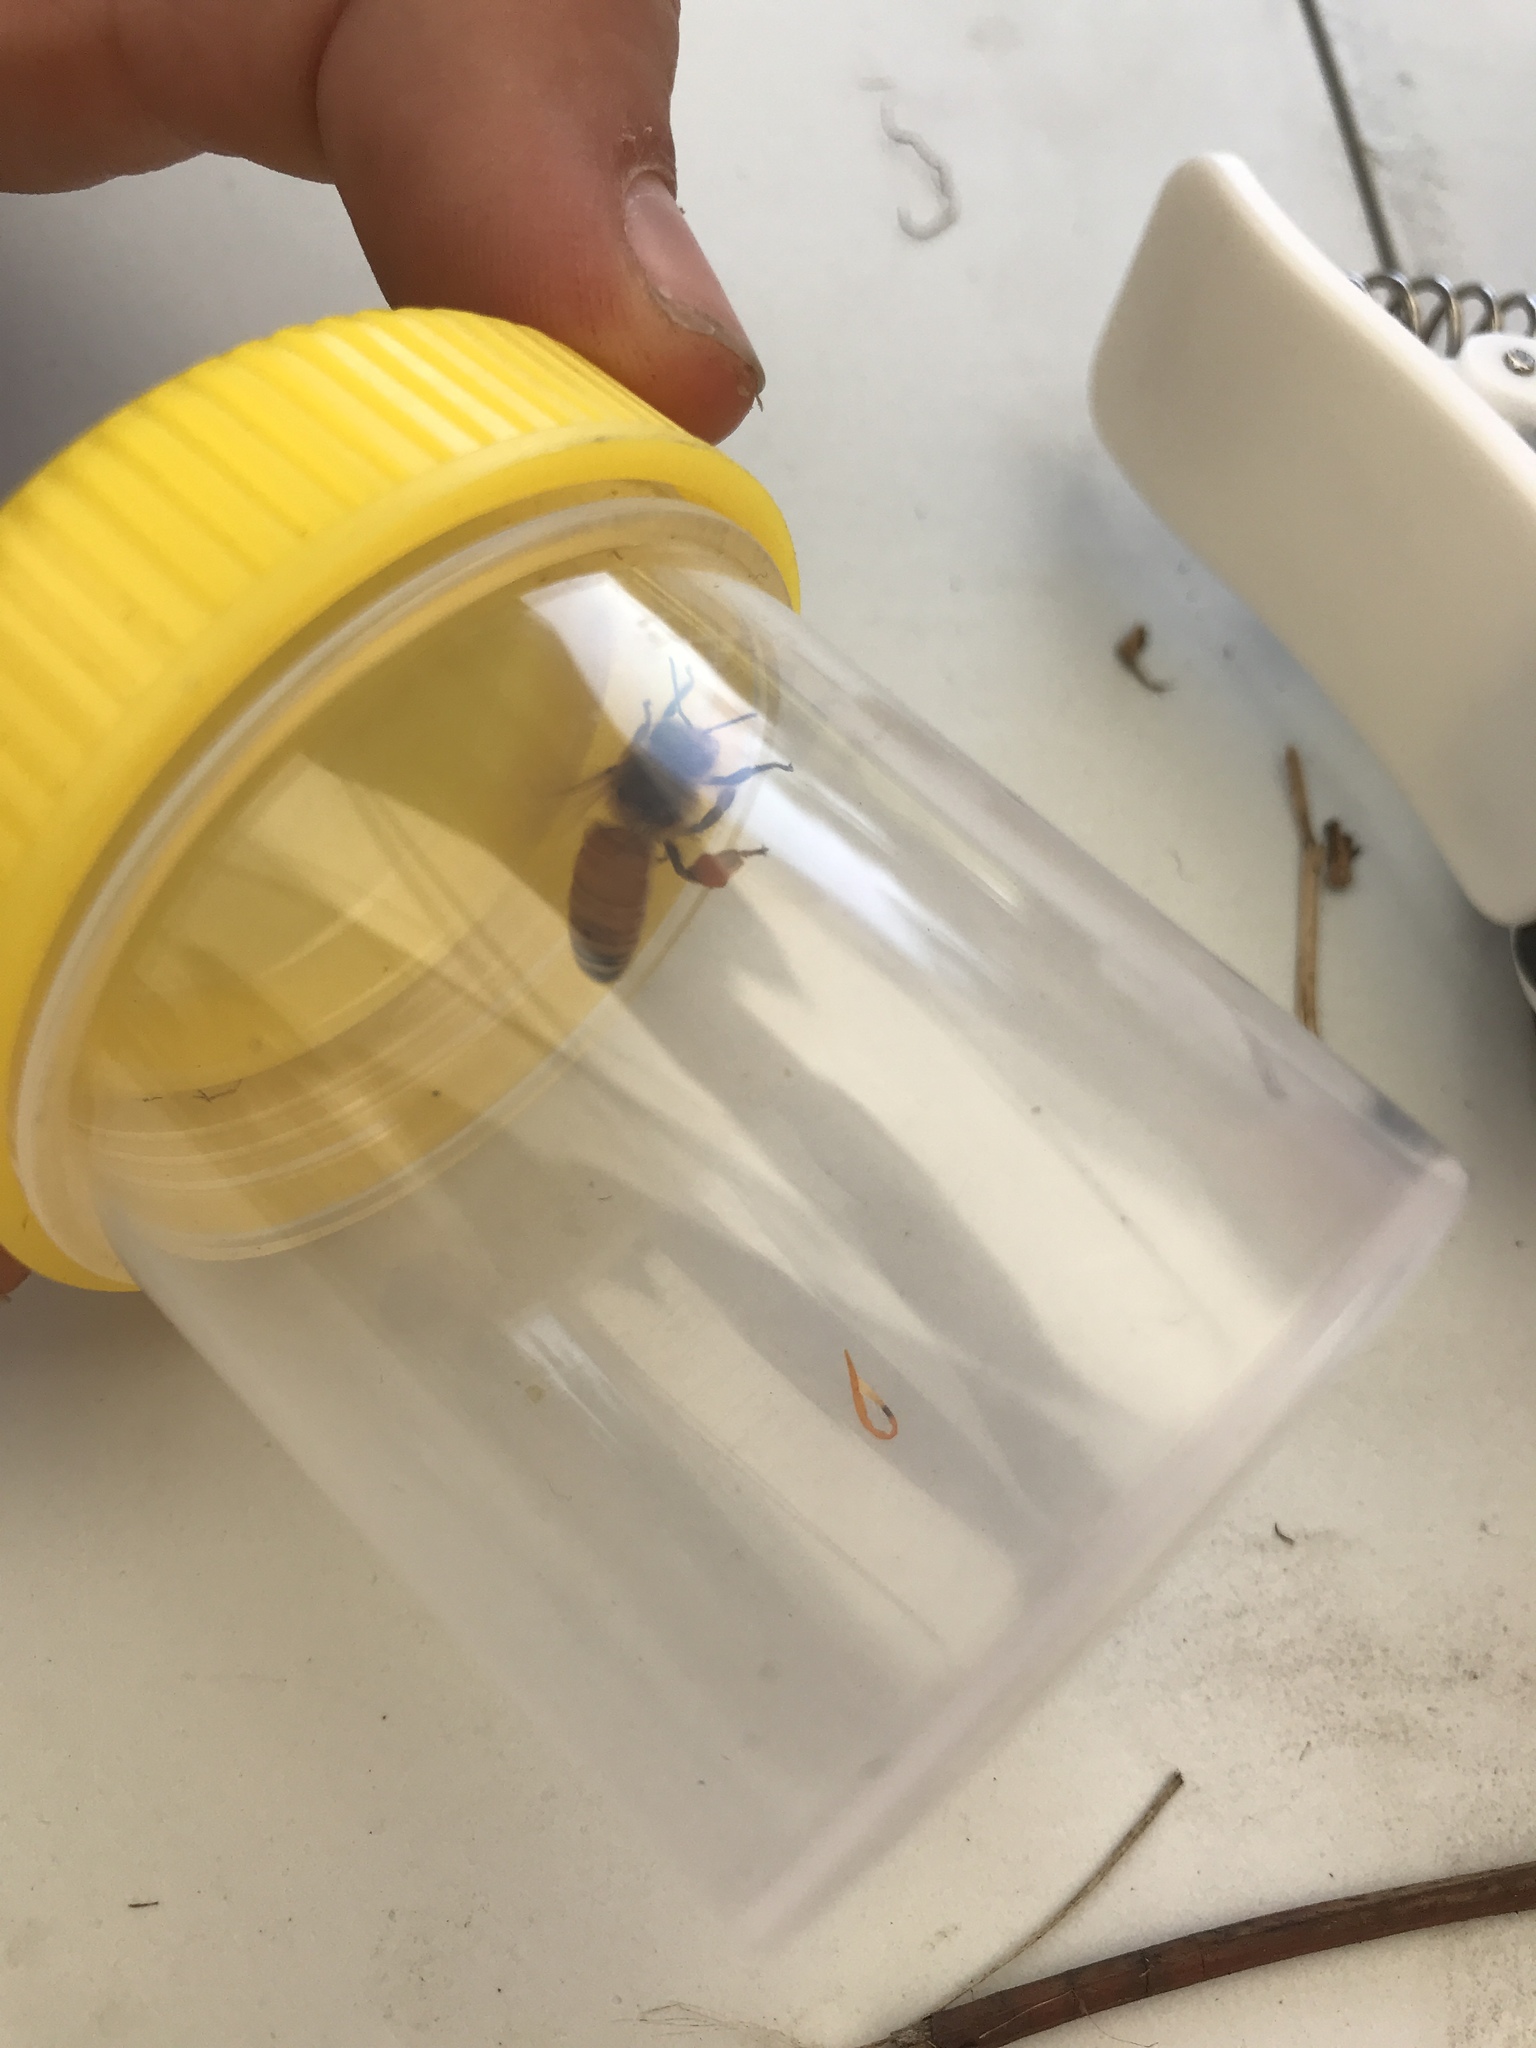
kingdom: Animalia
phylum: Arthropoda
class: Insecta
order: Hymenoptera
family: Apidae
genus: Apis
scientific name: Apis mellifera
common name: Honey bee
